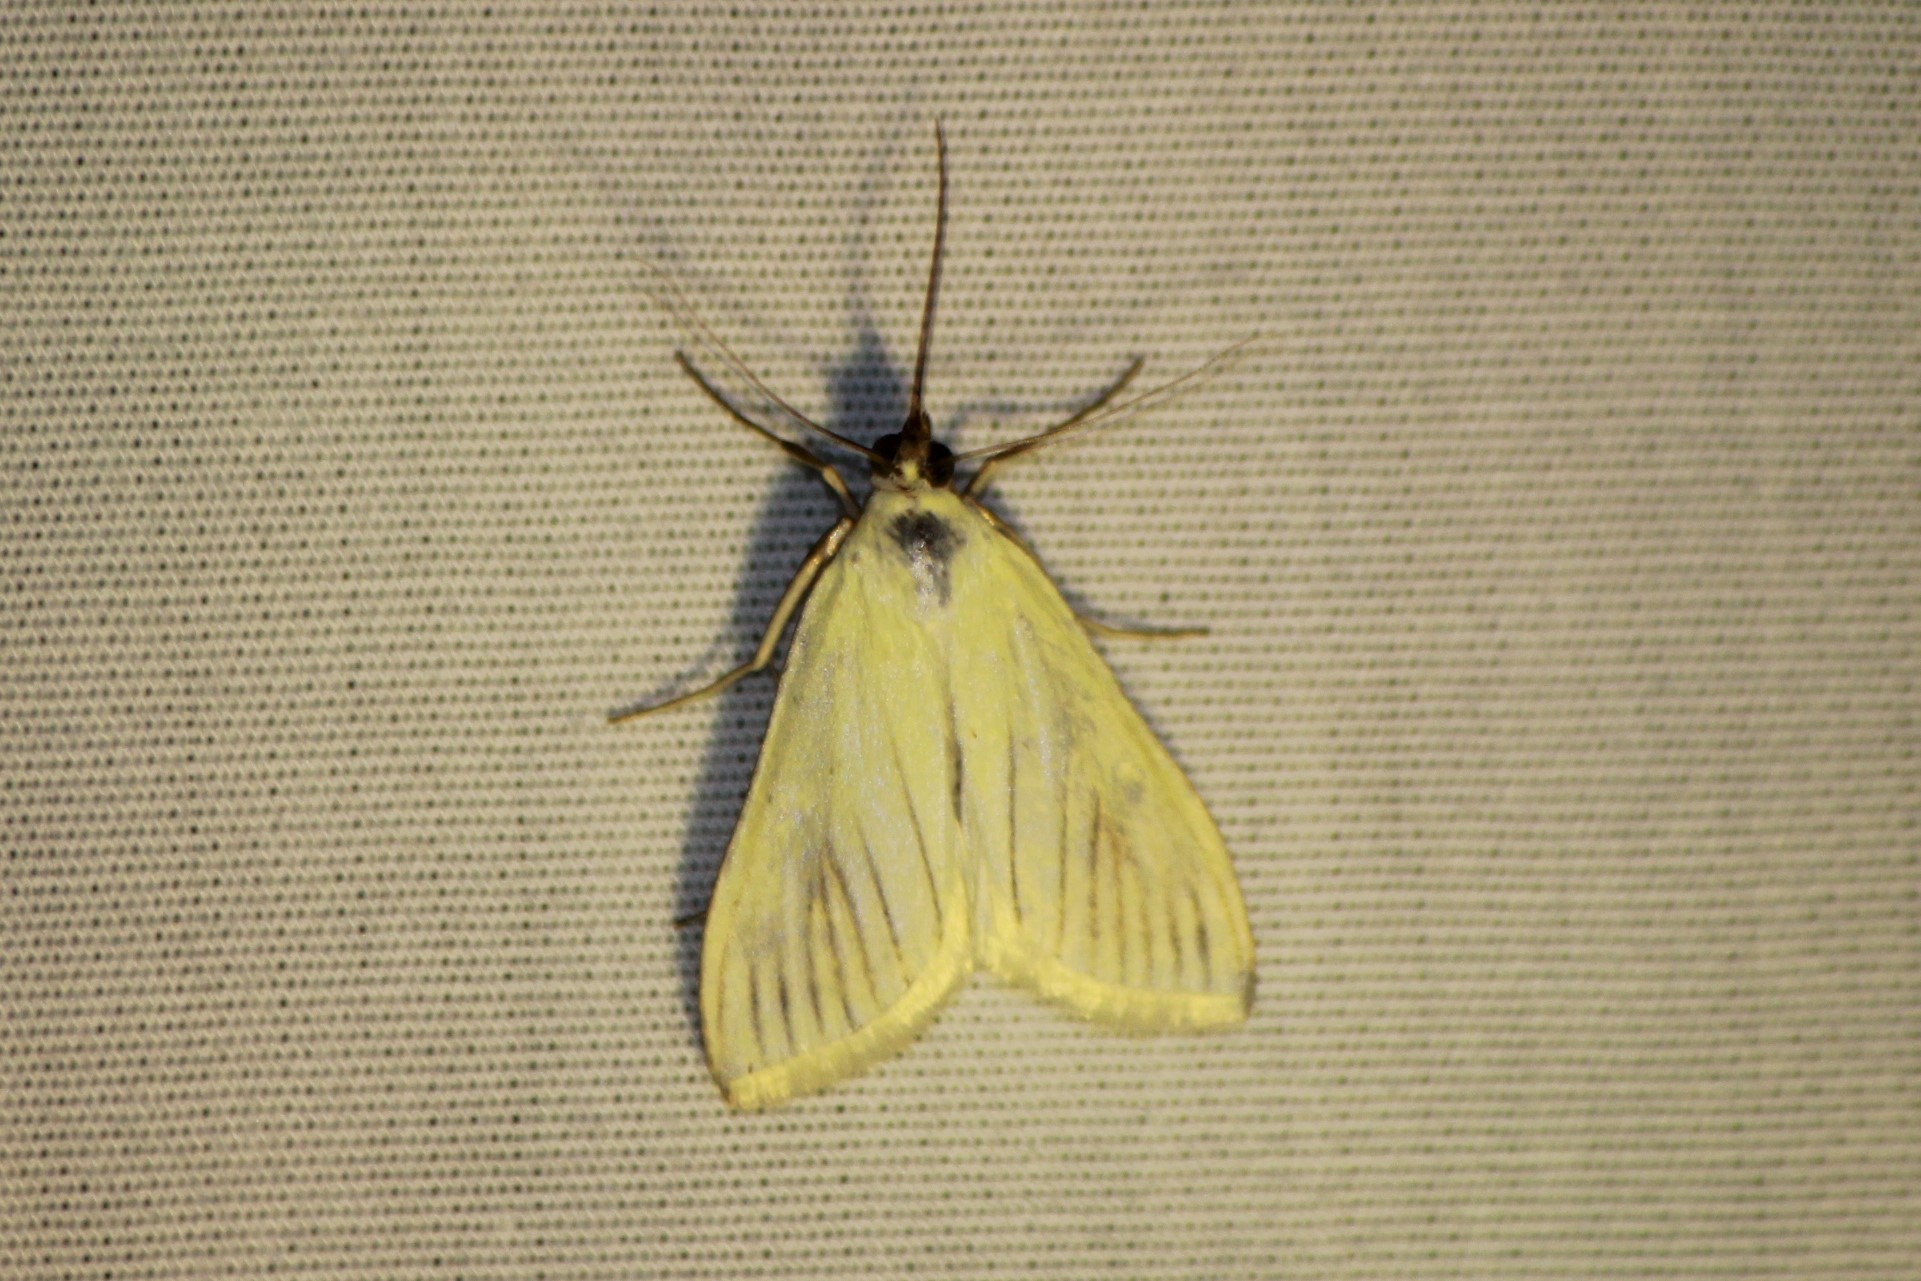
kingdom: Animalia
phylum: Arthropoda
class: Insecta
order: Lepidoptera
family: Crambidae
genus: Sitochroa
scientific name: Sitochroa palealis
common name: Greenish-yellow sitochroa moth
